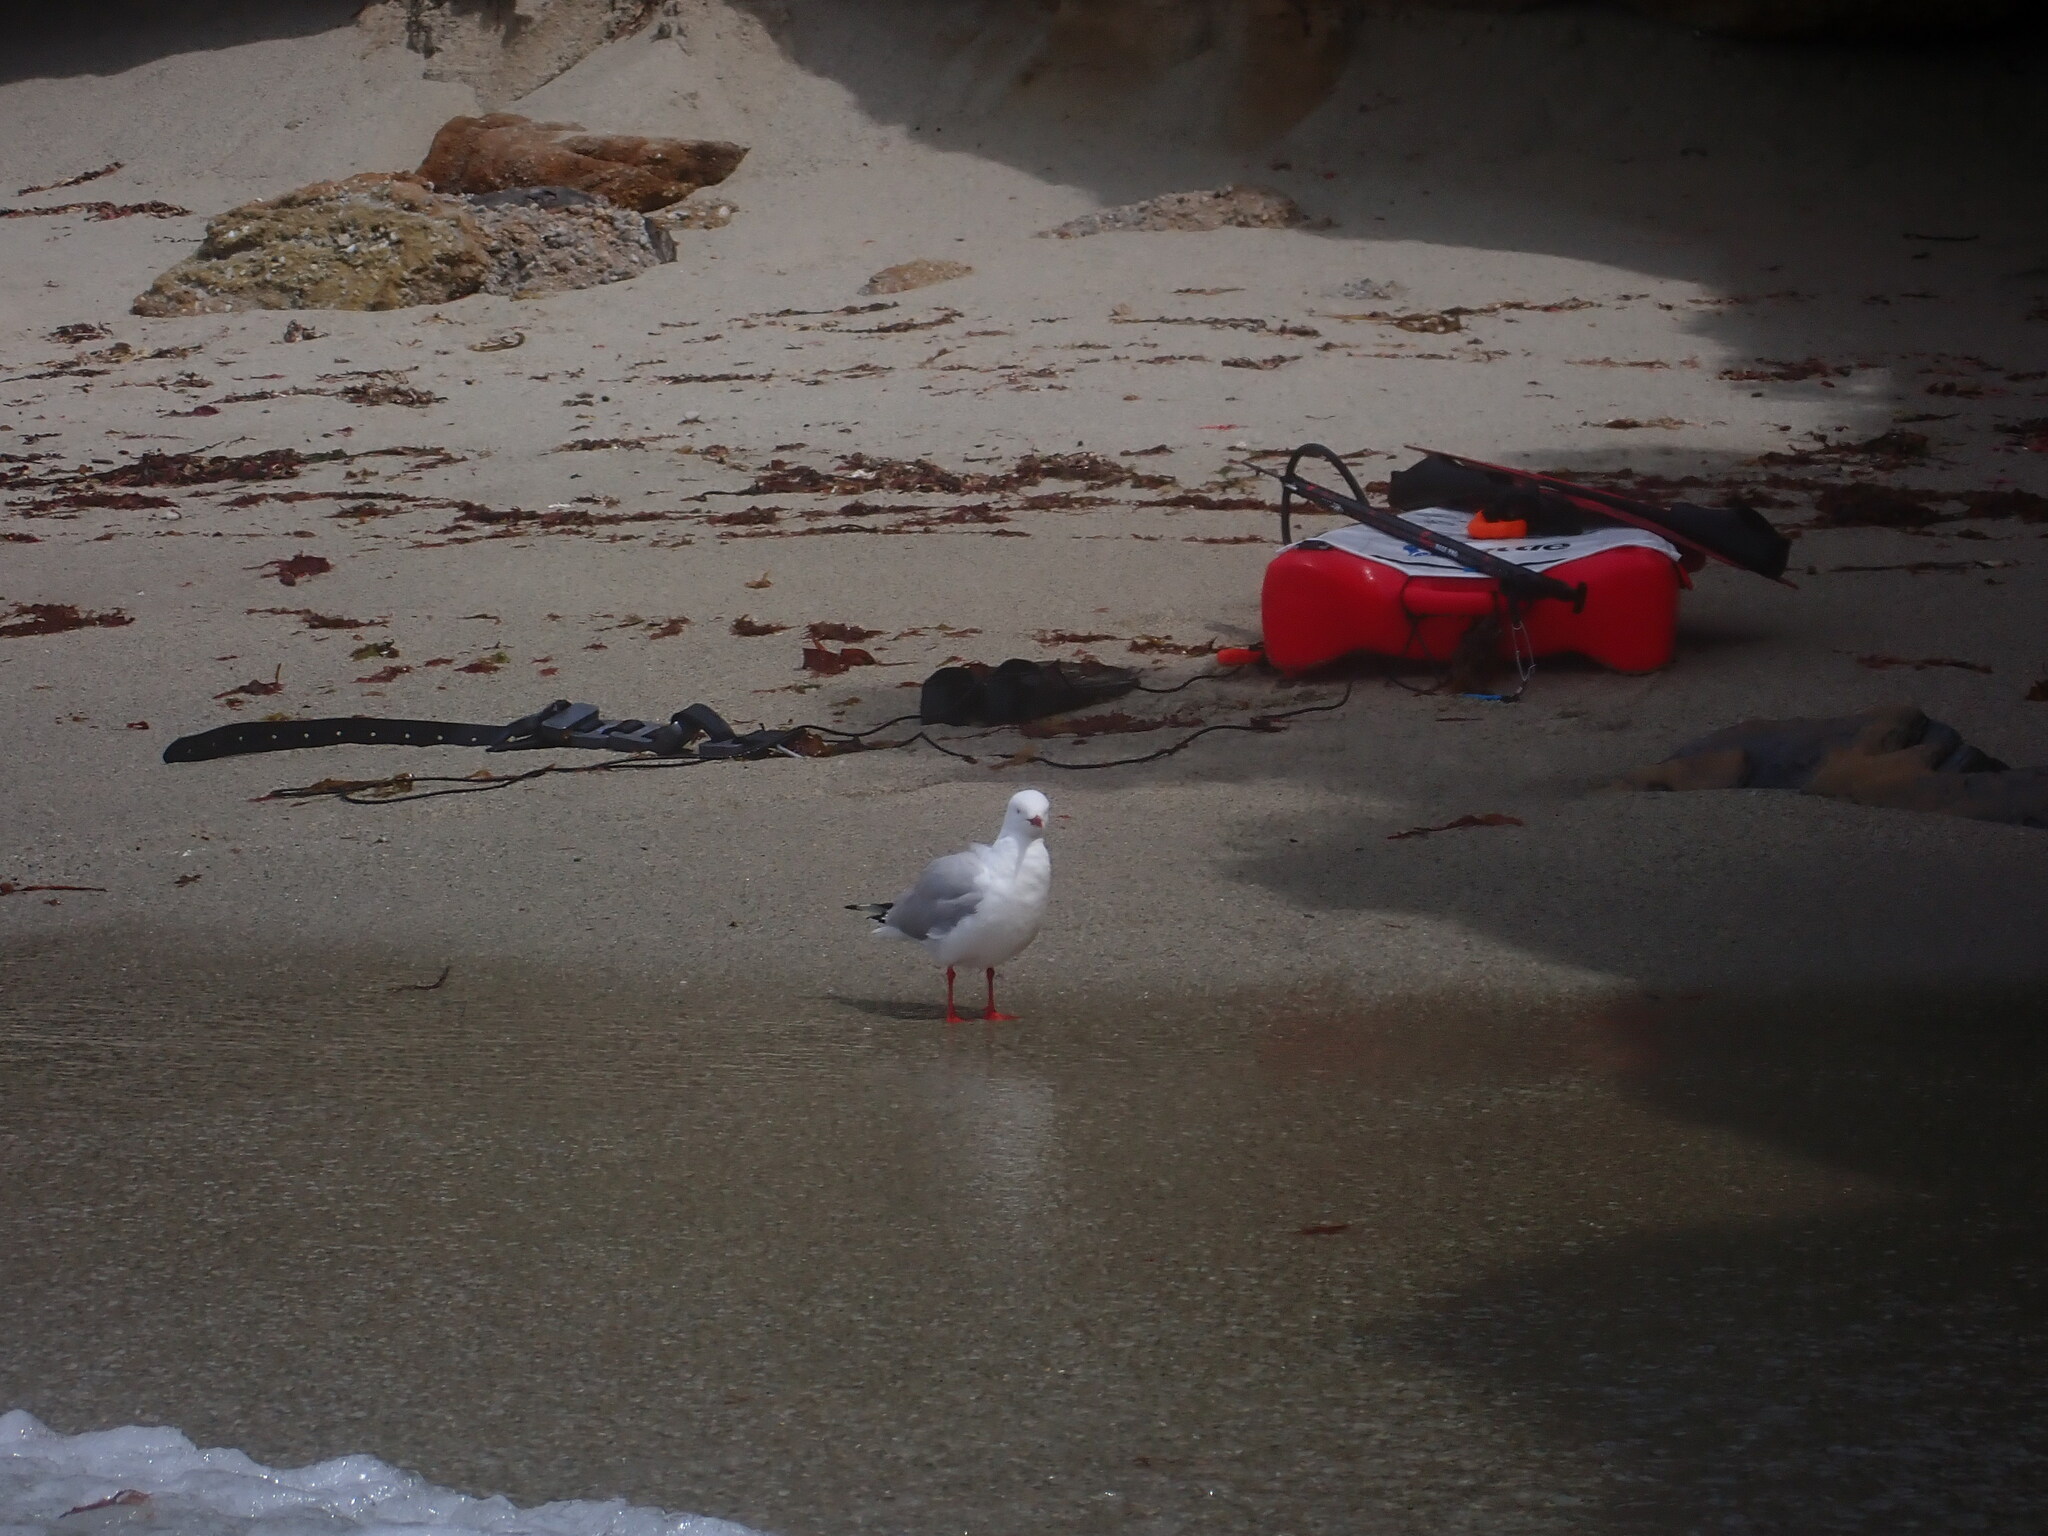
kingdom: Animalia
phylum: Chordata
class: Aves
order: Charadriiformes
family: Laridae
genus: Chroicocephalus
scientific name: Chroicocephalus novaehollandiae
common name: Silver gull
